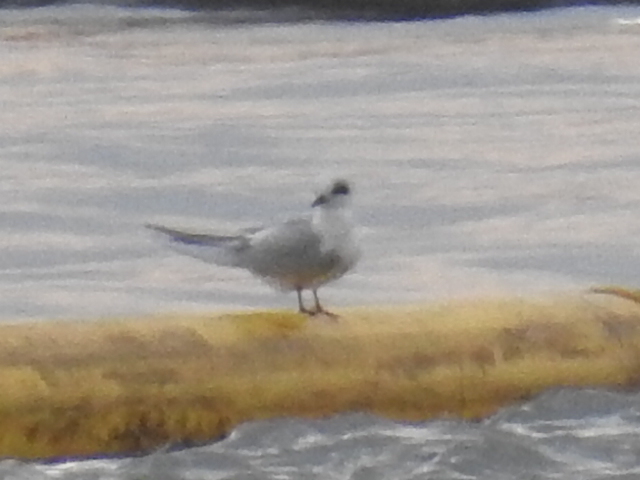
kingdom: Animalia
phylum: Chordata
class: Aves
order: Charadriiformes
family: Laridae
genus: Sterna
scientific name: Sterna forsteri
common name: Forster's tern
